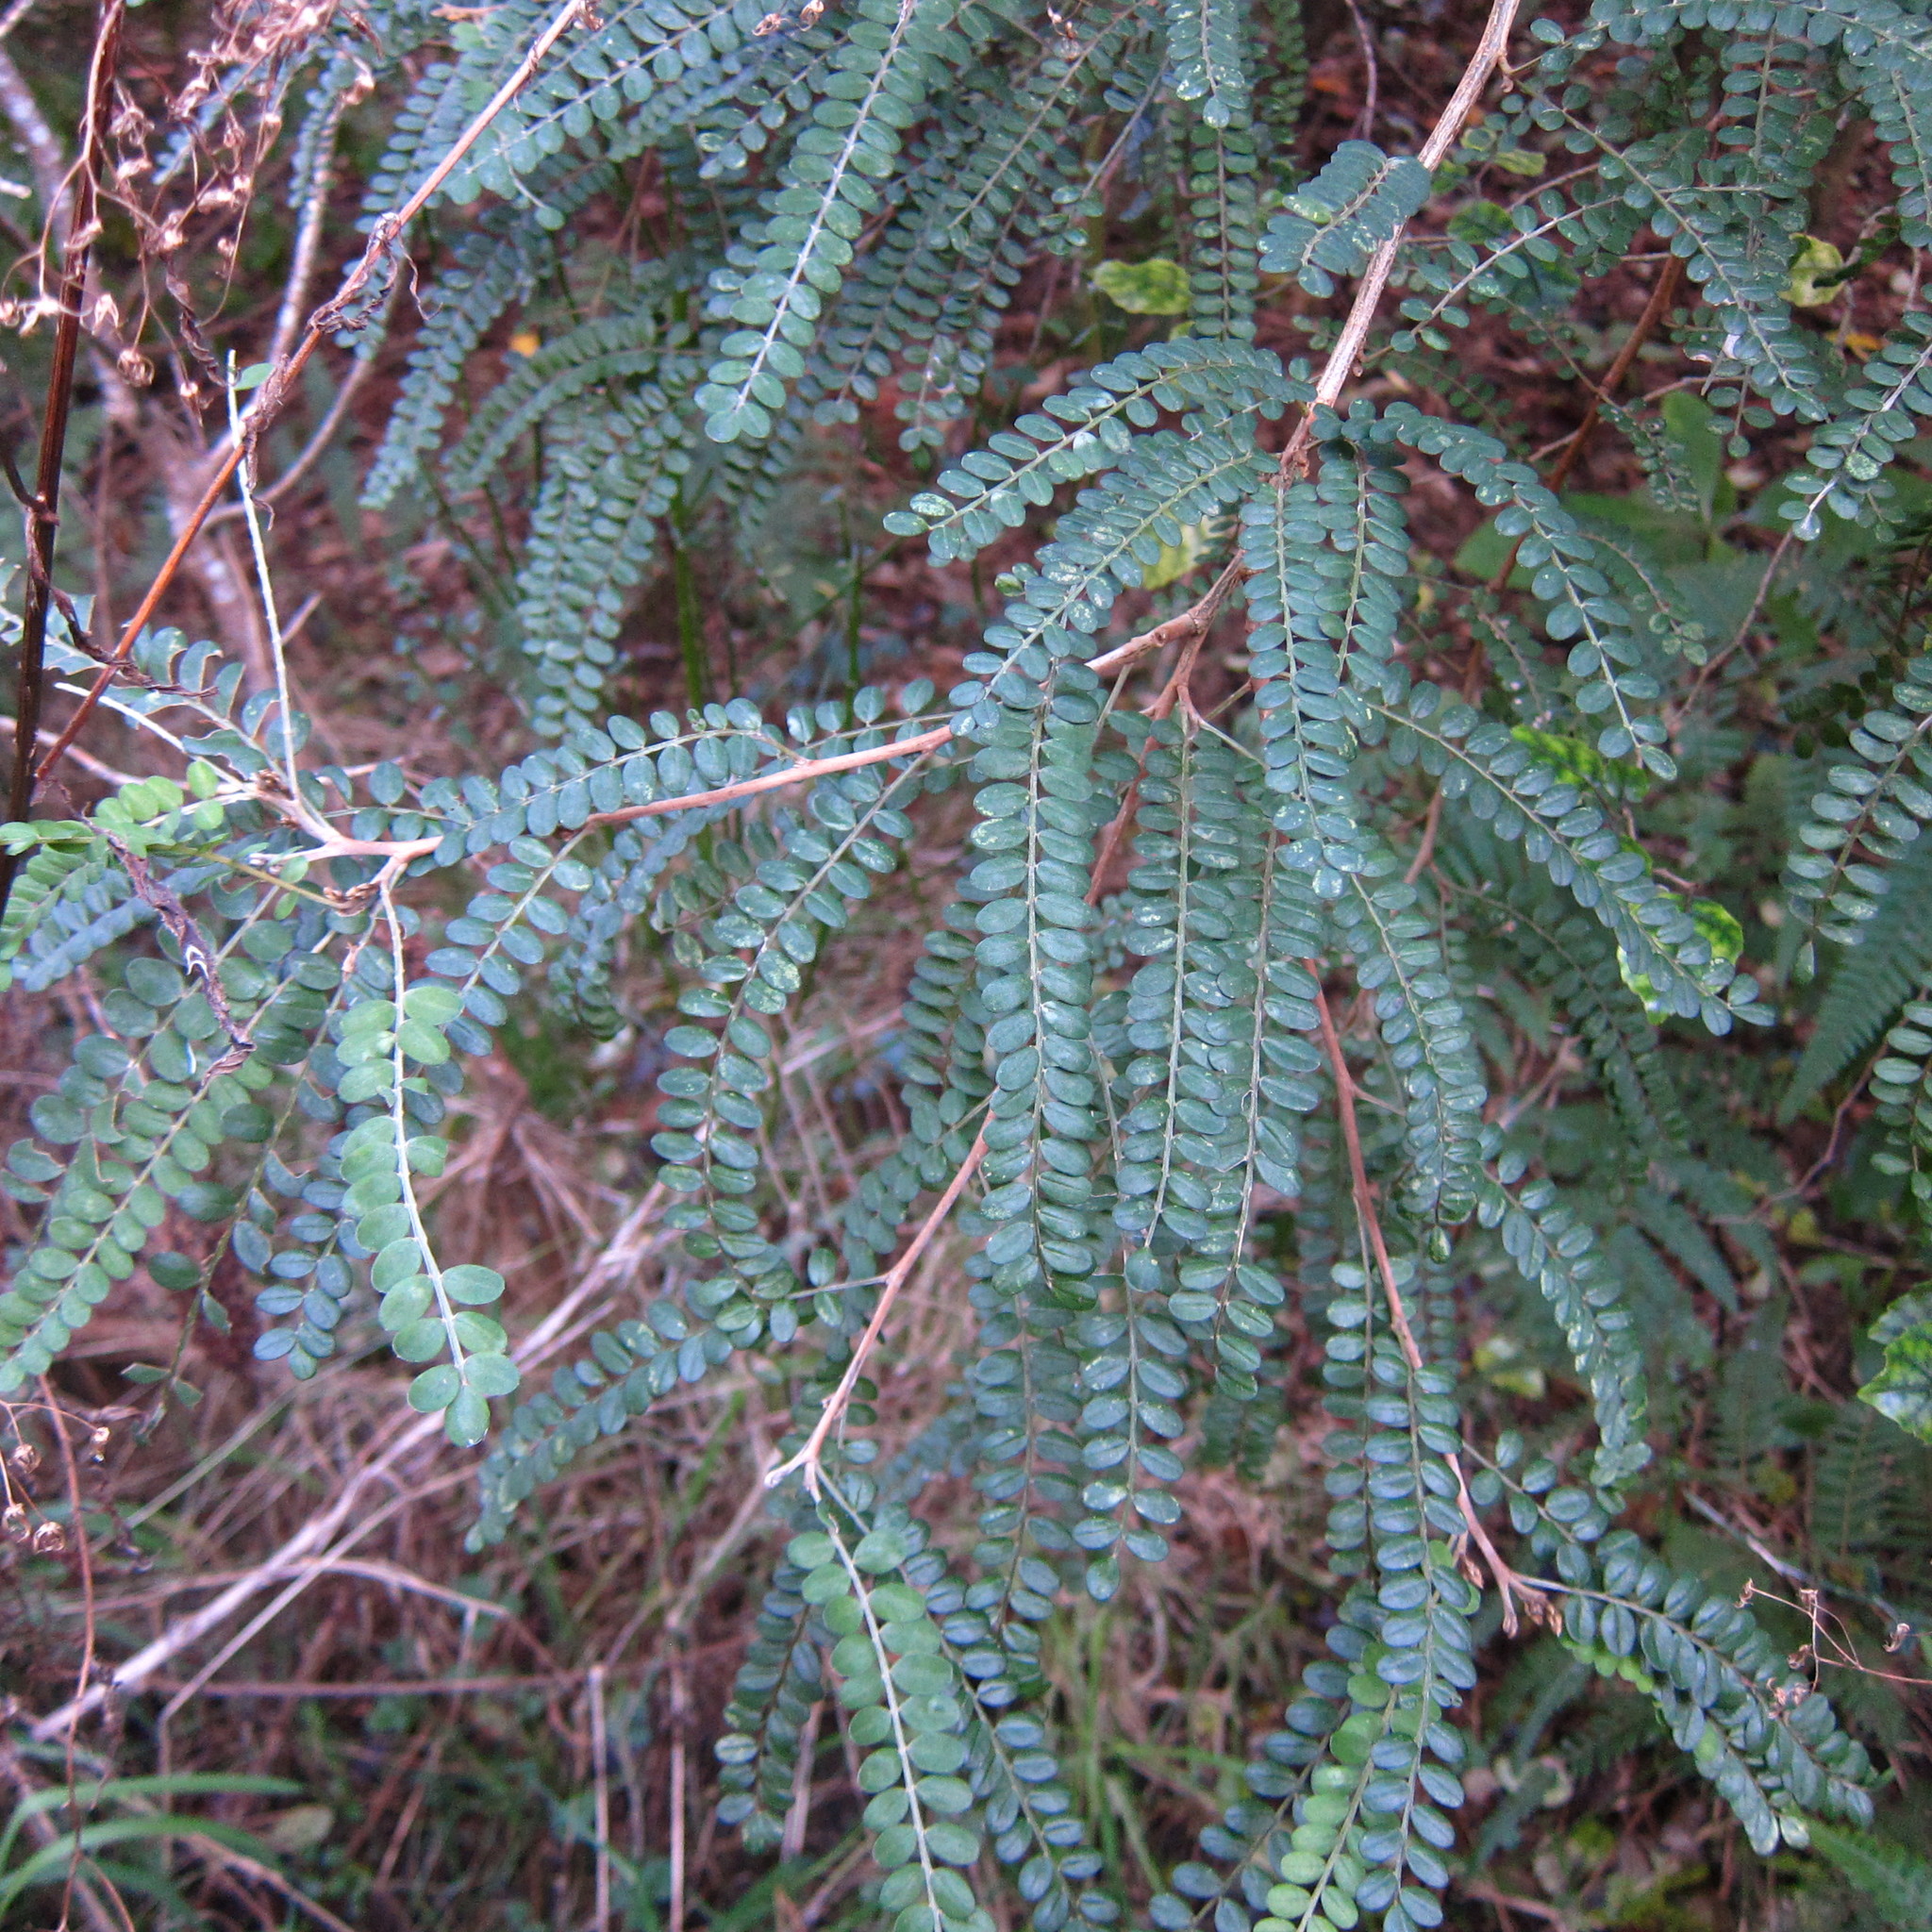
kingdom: Plantae
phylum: Tracheophyta
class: Magnoliopsida
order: Fabales
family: Fabaceae
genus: Sophora
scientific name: Sophora microphylla
